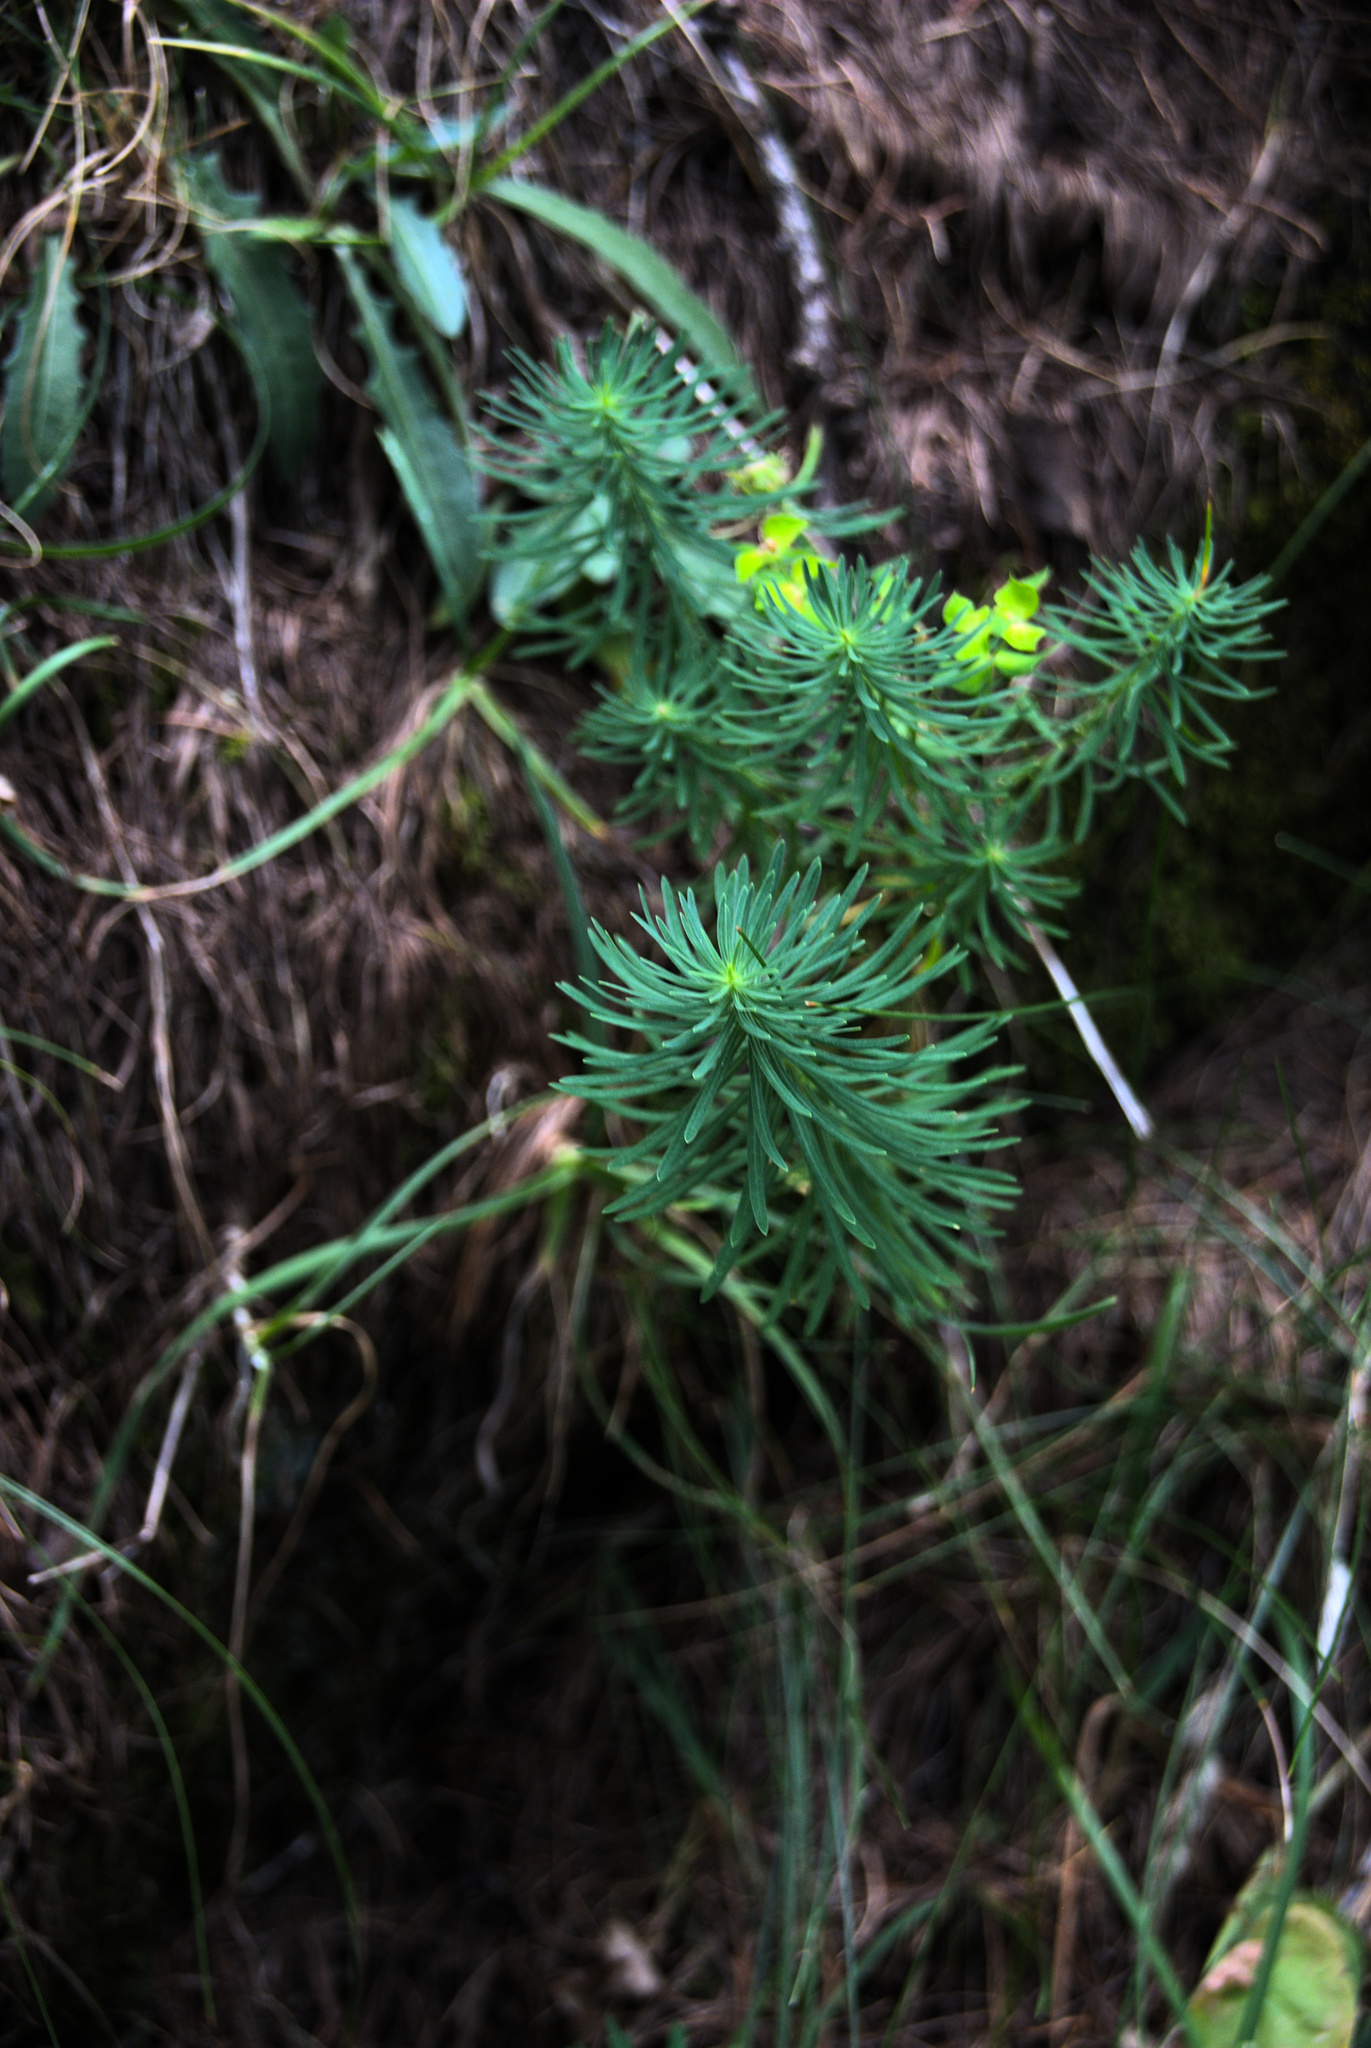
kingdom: Plantae
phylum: Tracheophyta
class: Magnoliopsida
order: Malpighiales
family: Euphorbiaceae
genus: Euphorbia
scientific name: Euphorbia cyparissias
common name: Cypress spurge
